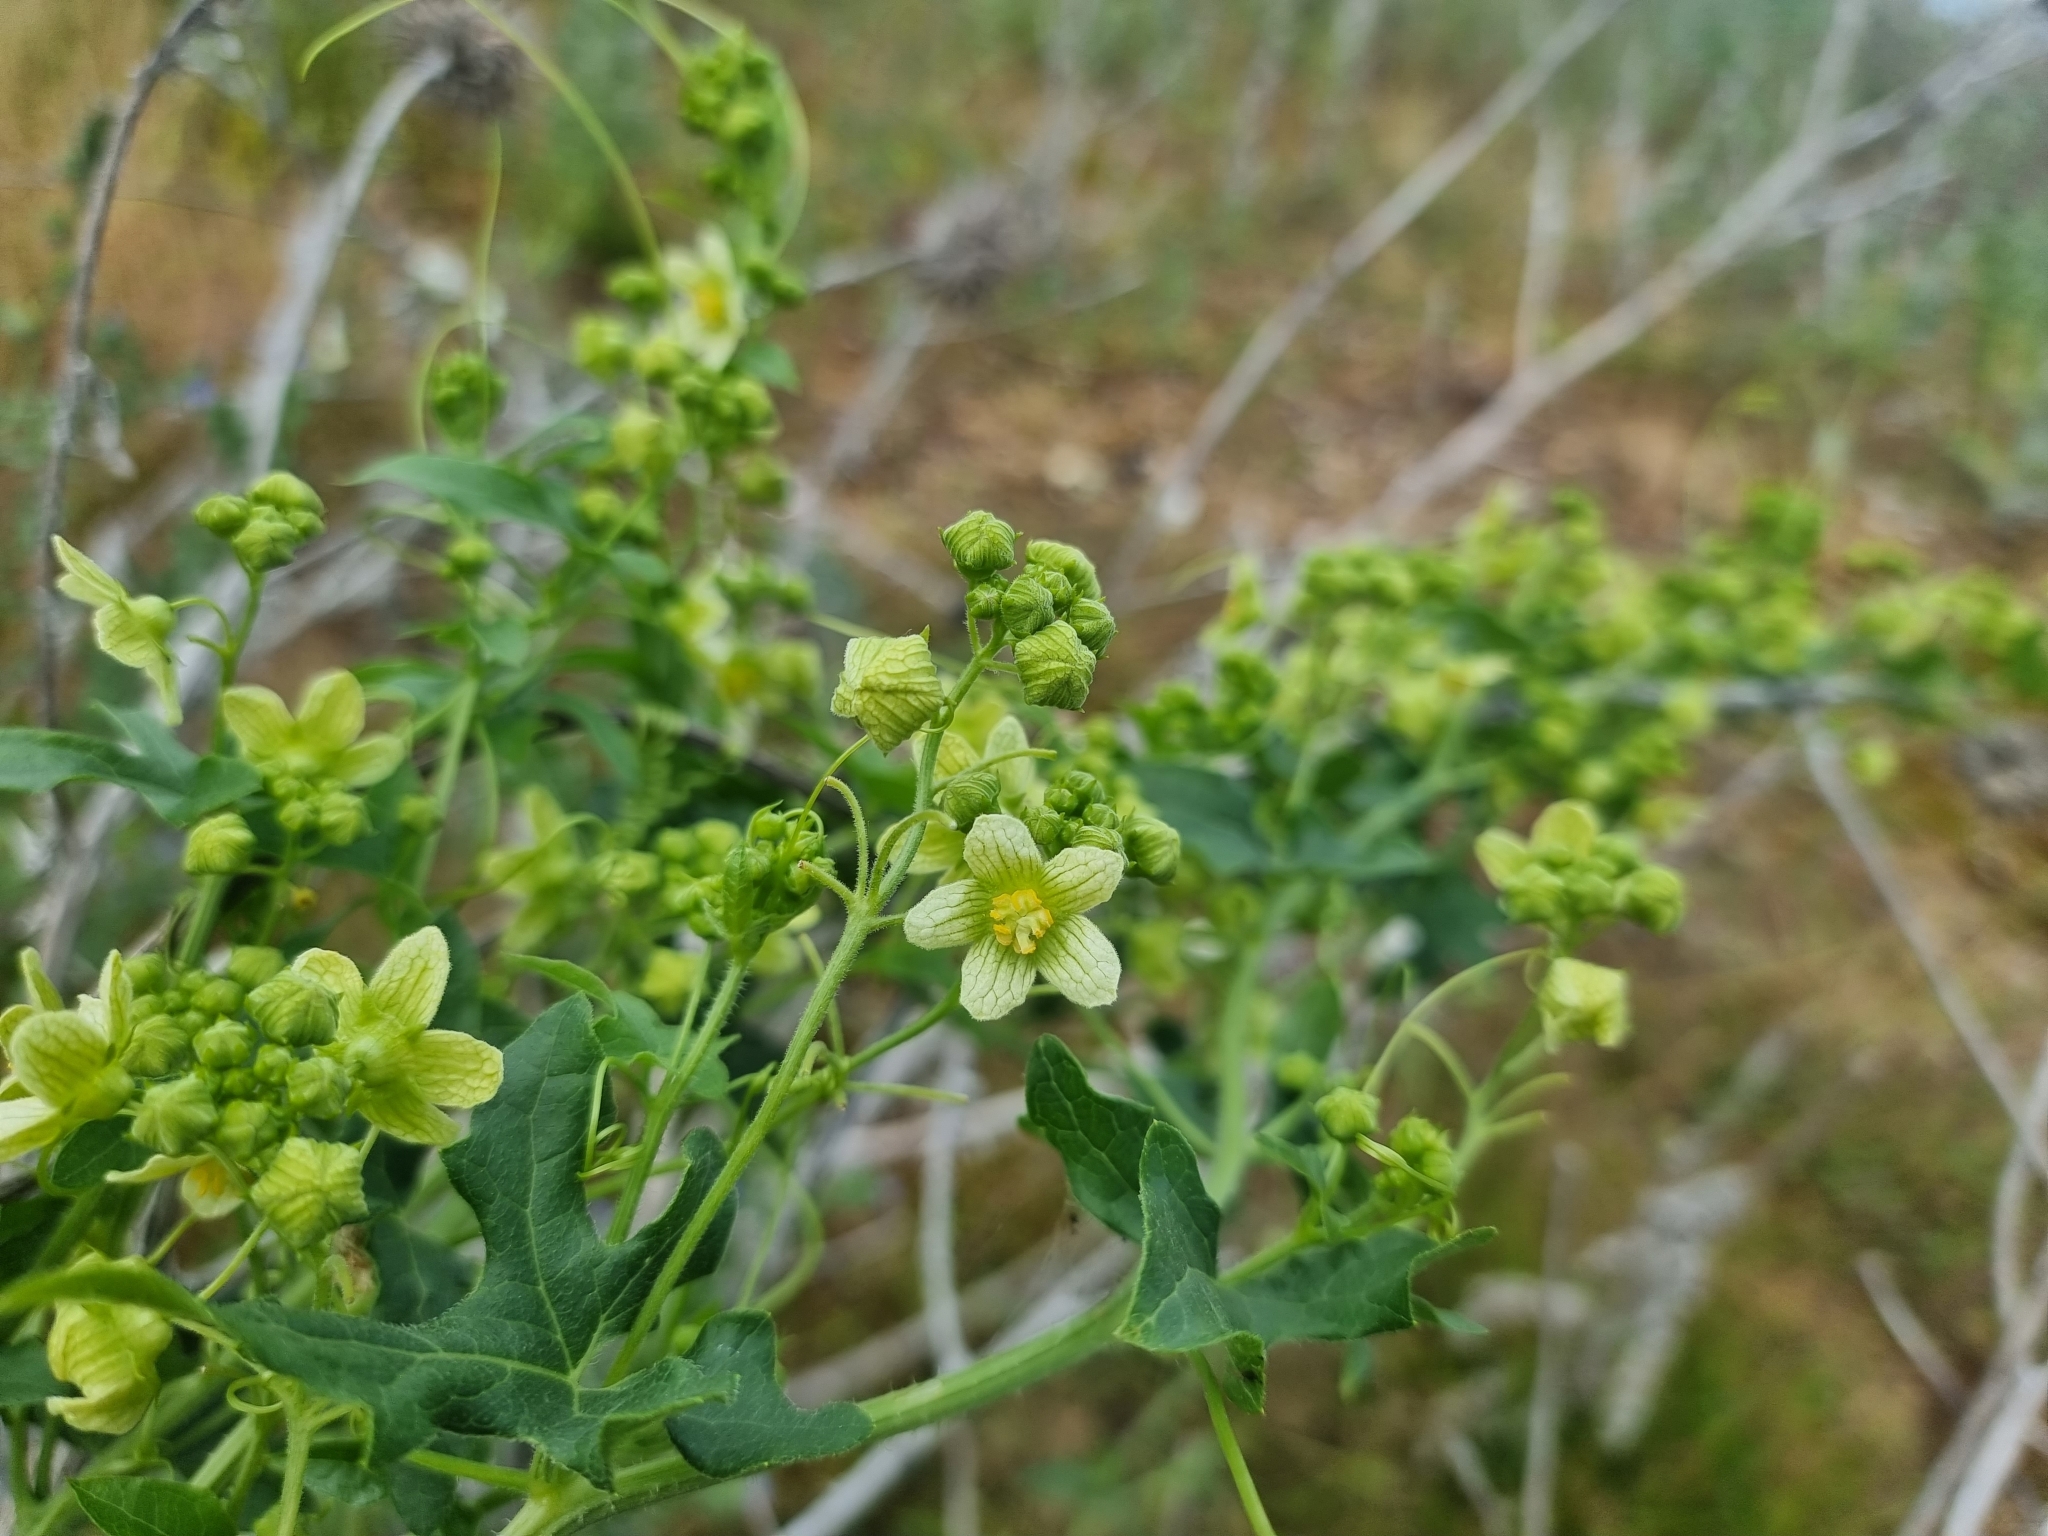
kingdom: Plantae
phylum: Tracheophyta
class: Magnoliopsida
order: Cucurbitales
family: Cucurbitaceae
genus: Bryonia
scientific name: Bryonia cretica
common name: Cretan bryony
